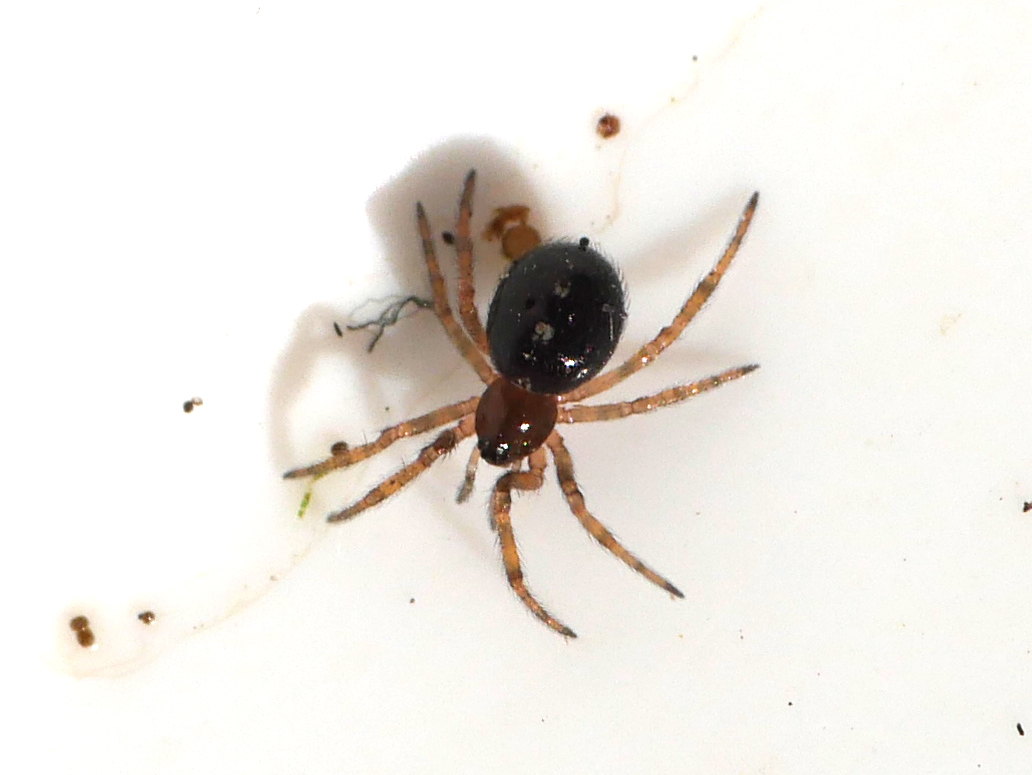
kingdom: Animalia
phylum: Arthropoda
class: Arachnida
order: Araneae
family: Theridiidae
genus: Steatoda
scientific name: Steatoda bipunctata
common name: False widow
